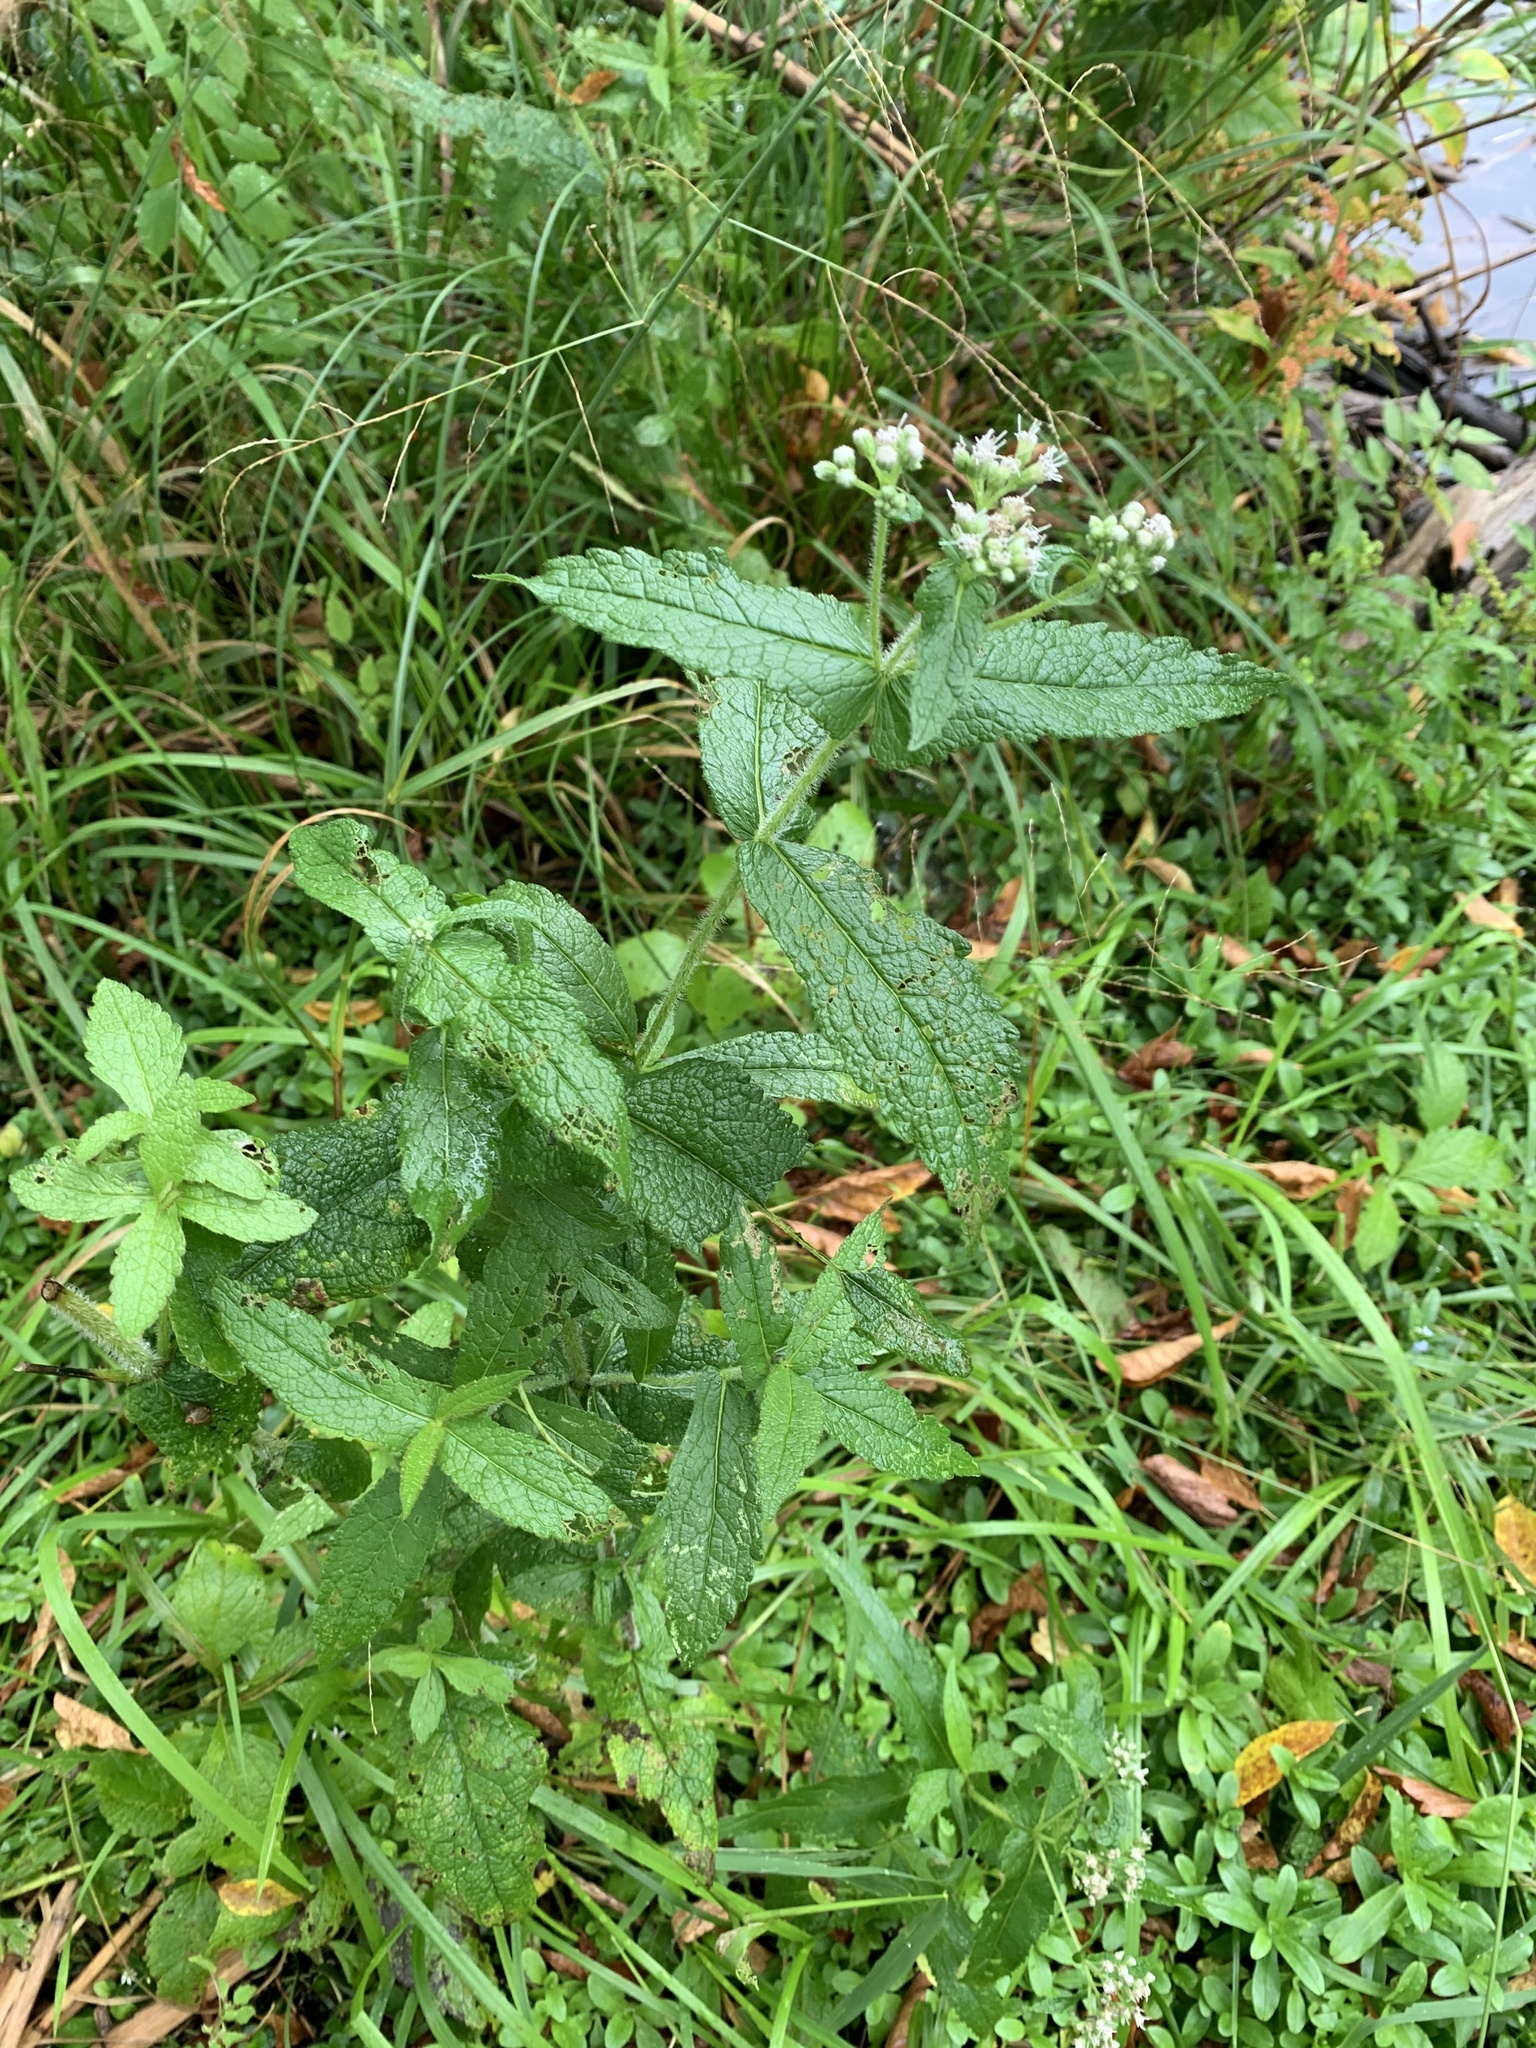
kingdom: Plantae
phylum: Tracheophyta
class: Magnoliopsida
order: Asterales
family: Asteraceae
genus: Eupatorium
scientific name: Eupatorium perfoliatum
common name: Boneset
